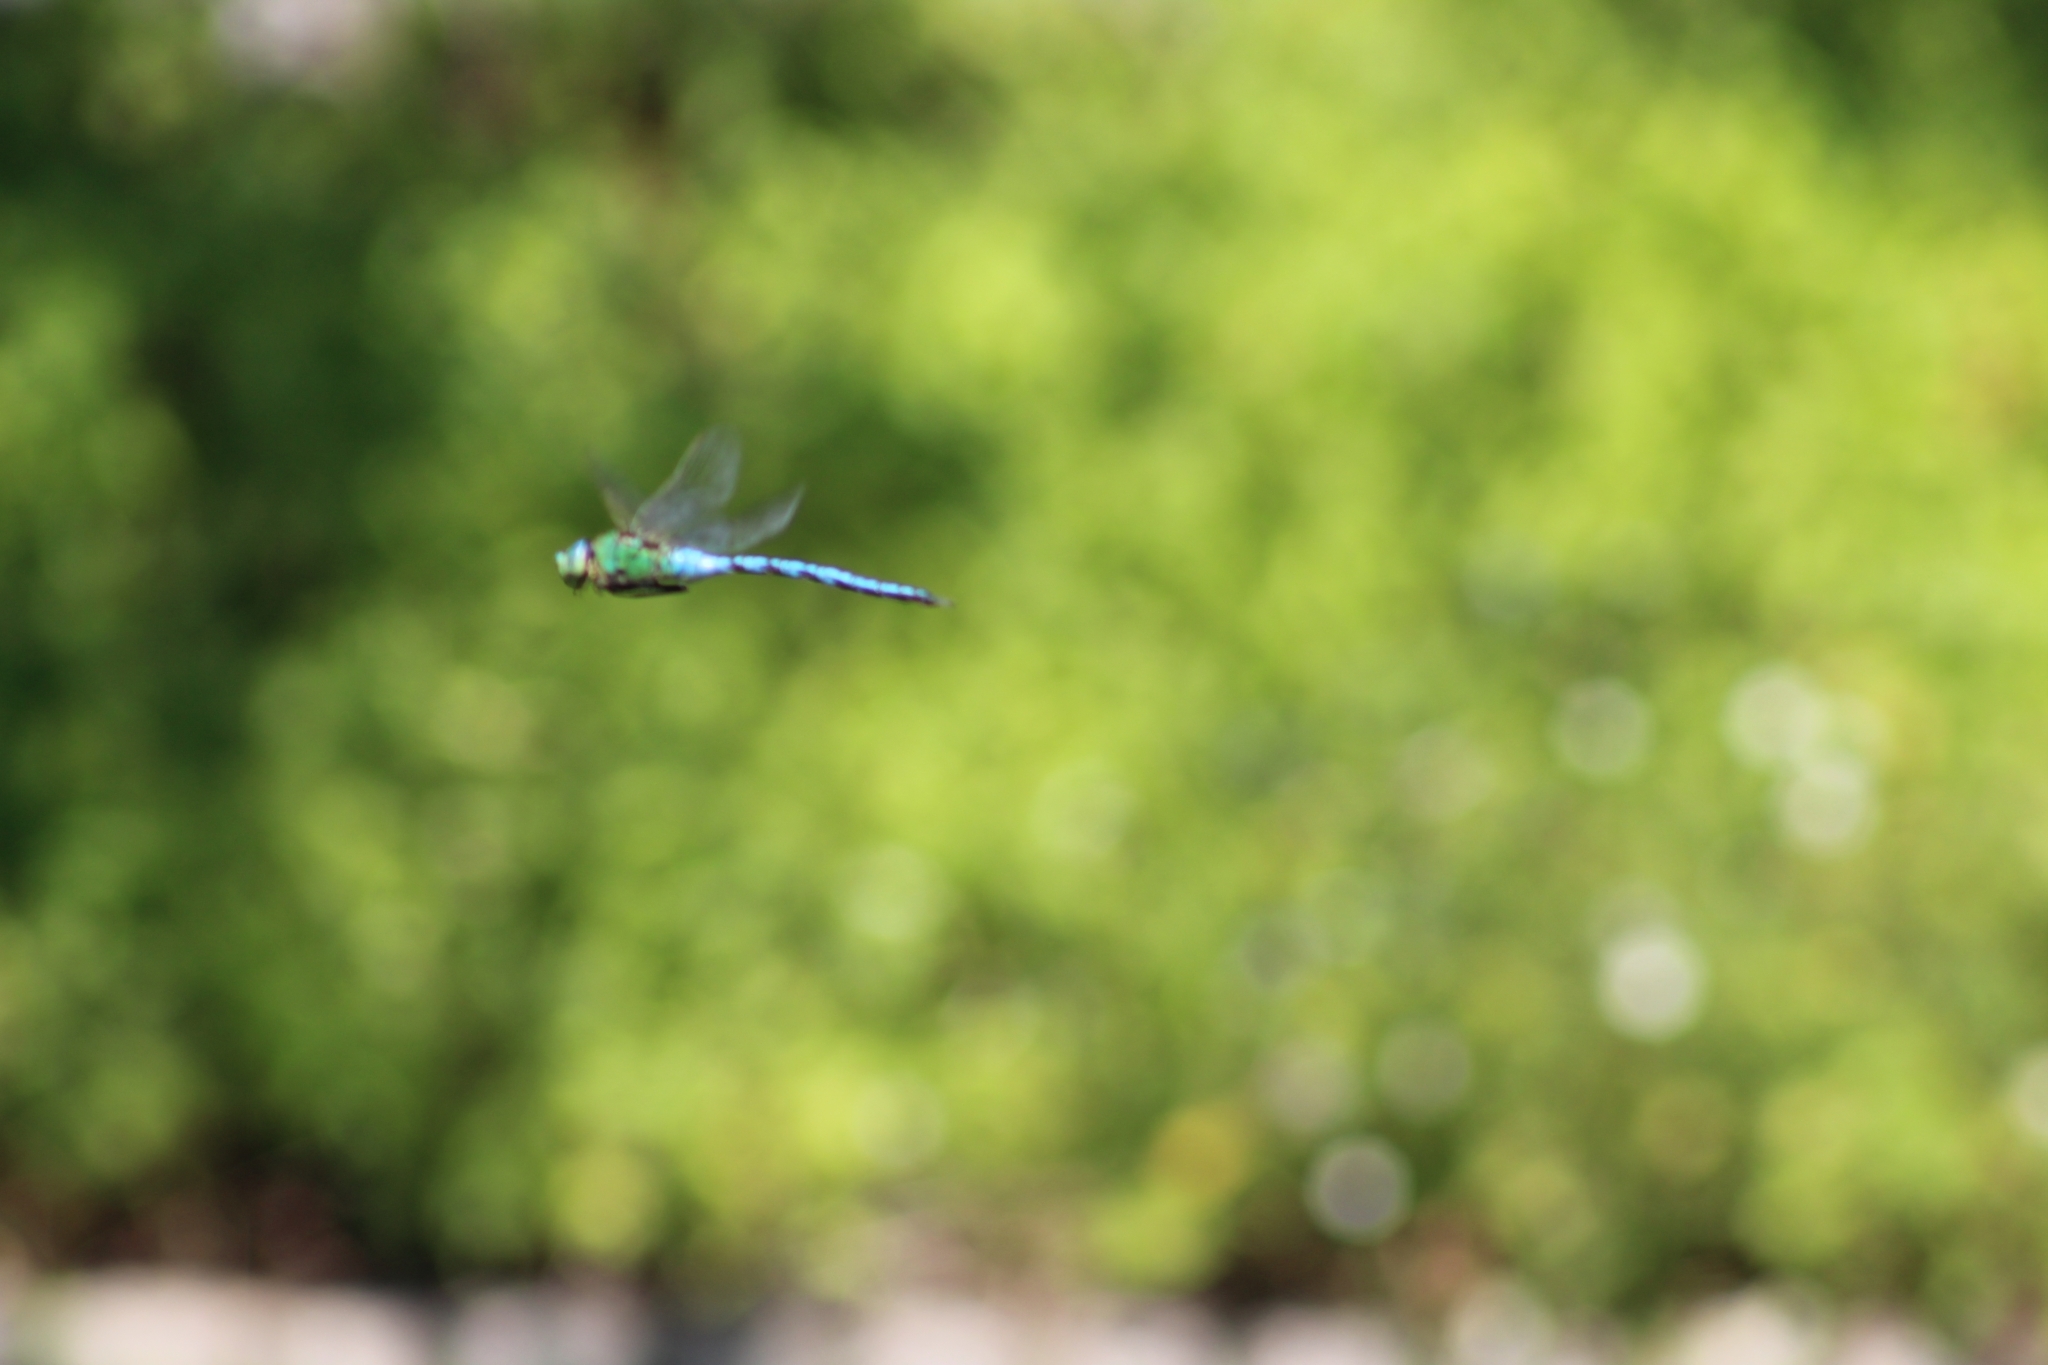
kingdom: Animalia
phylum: Arthropoda
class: Insecta
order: Odonata
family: Aeshnidae
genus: Anax
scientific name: Anax imperator
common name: Emperor dragonfly
